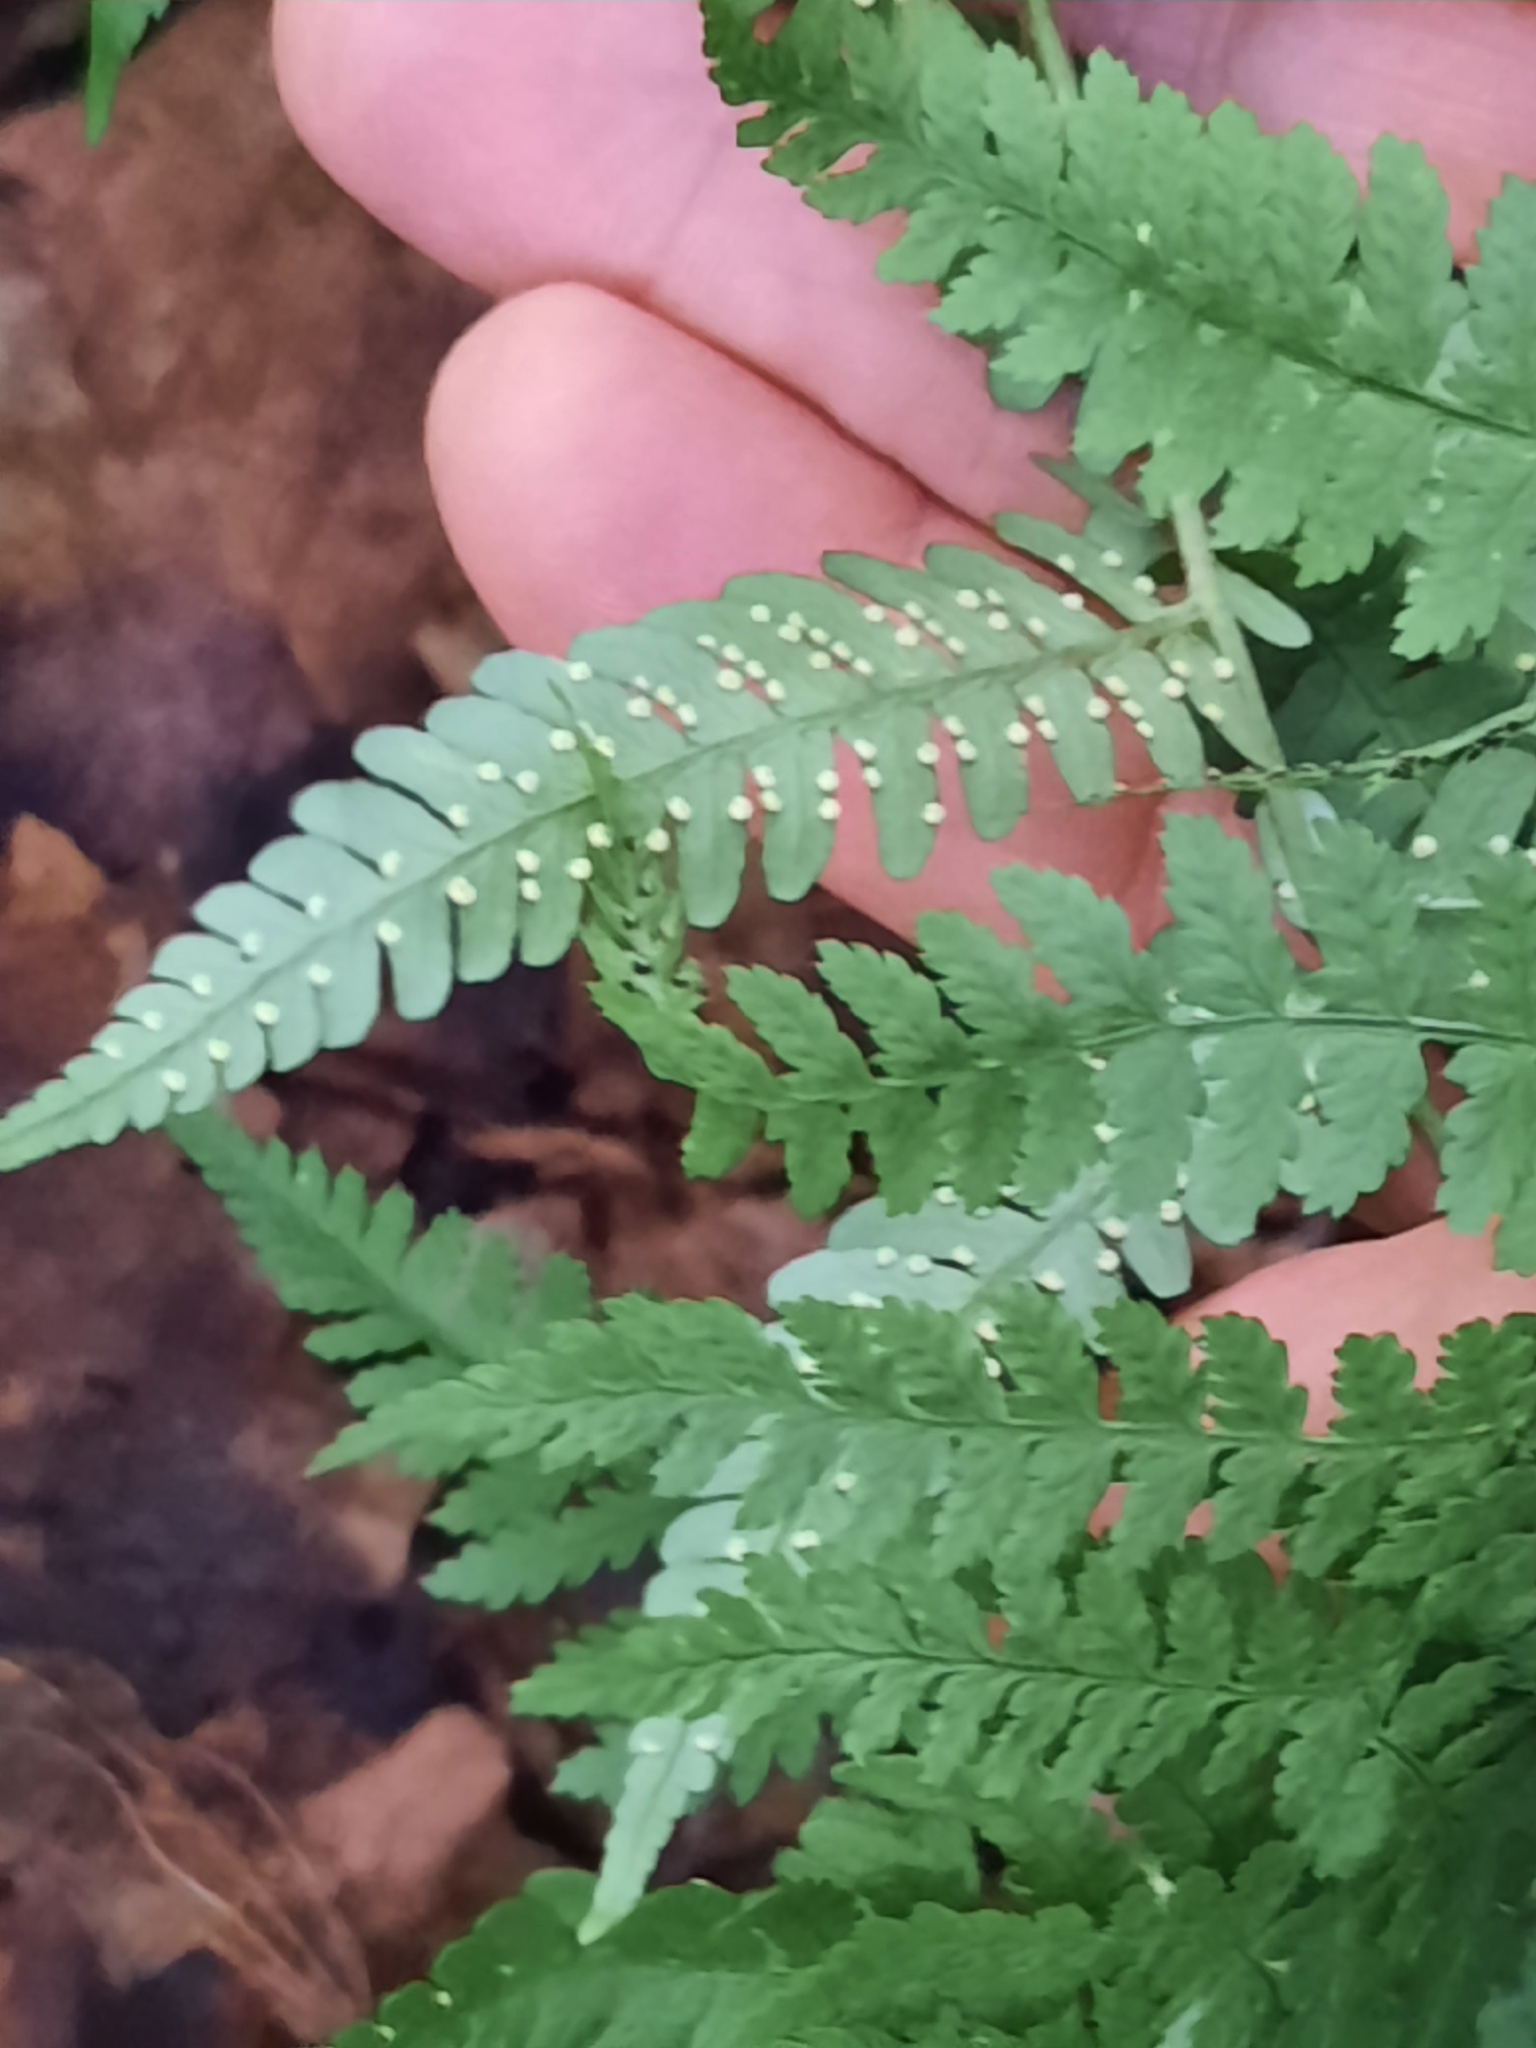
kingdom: Plantae
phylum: Tracheophyta
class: Polypodiopsida
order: Polypodiales
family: Dryopteridaceae
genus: Dryopteris
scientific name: Dryopteris marginalis
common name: Marginal wood fern
